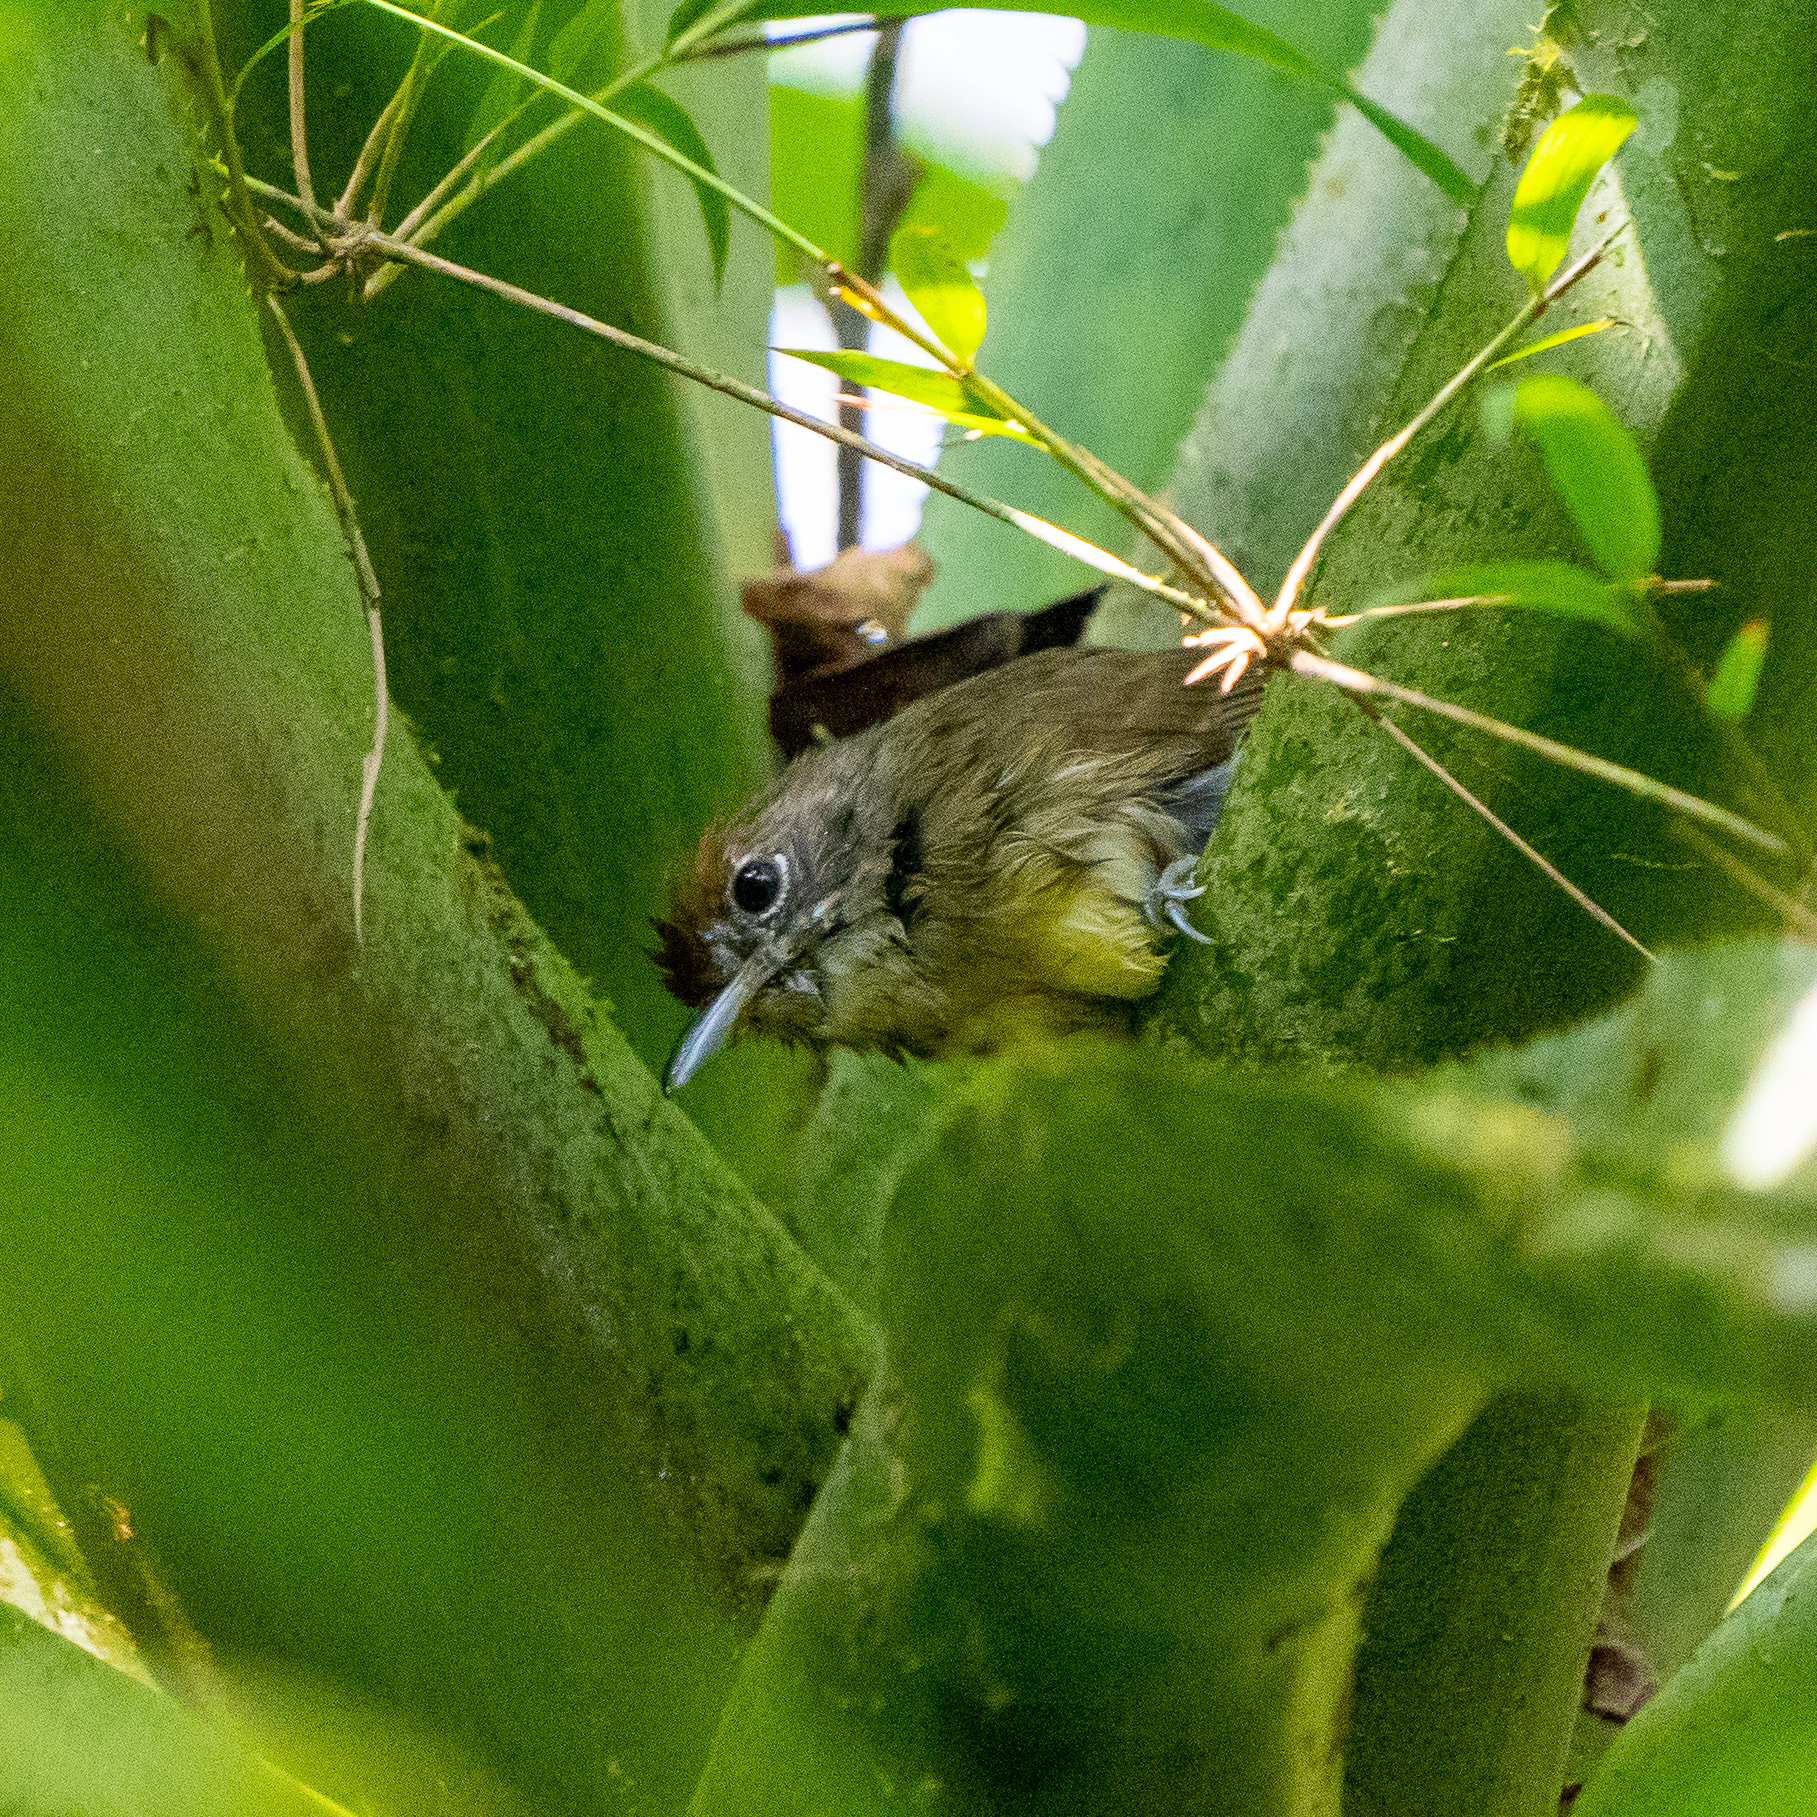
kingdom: Animalia
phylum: Chordata
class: Aves
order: Passeriformes
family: Thamnophilidae
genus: Dysithamnus
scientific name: Dysithamnus mentalis
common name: Plain antvireo
